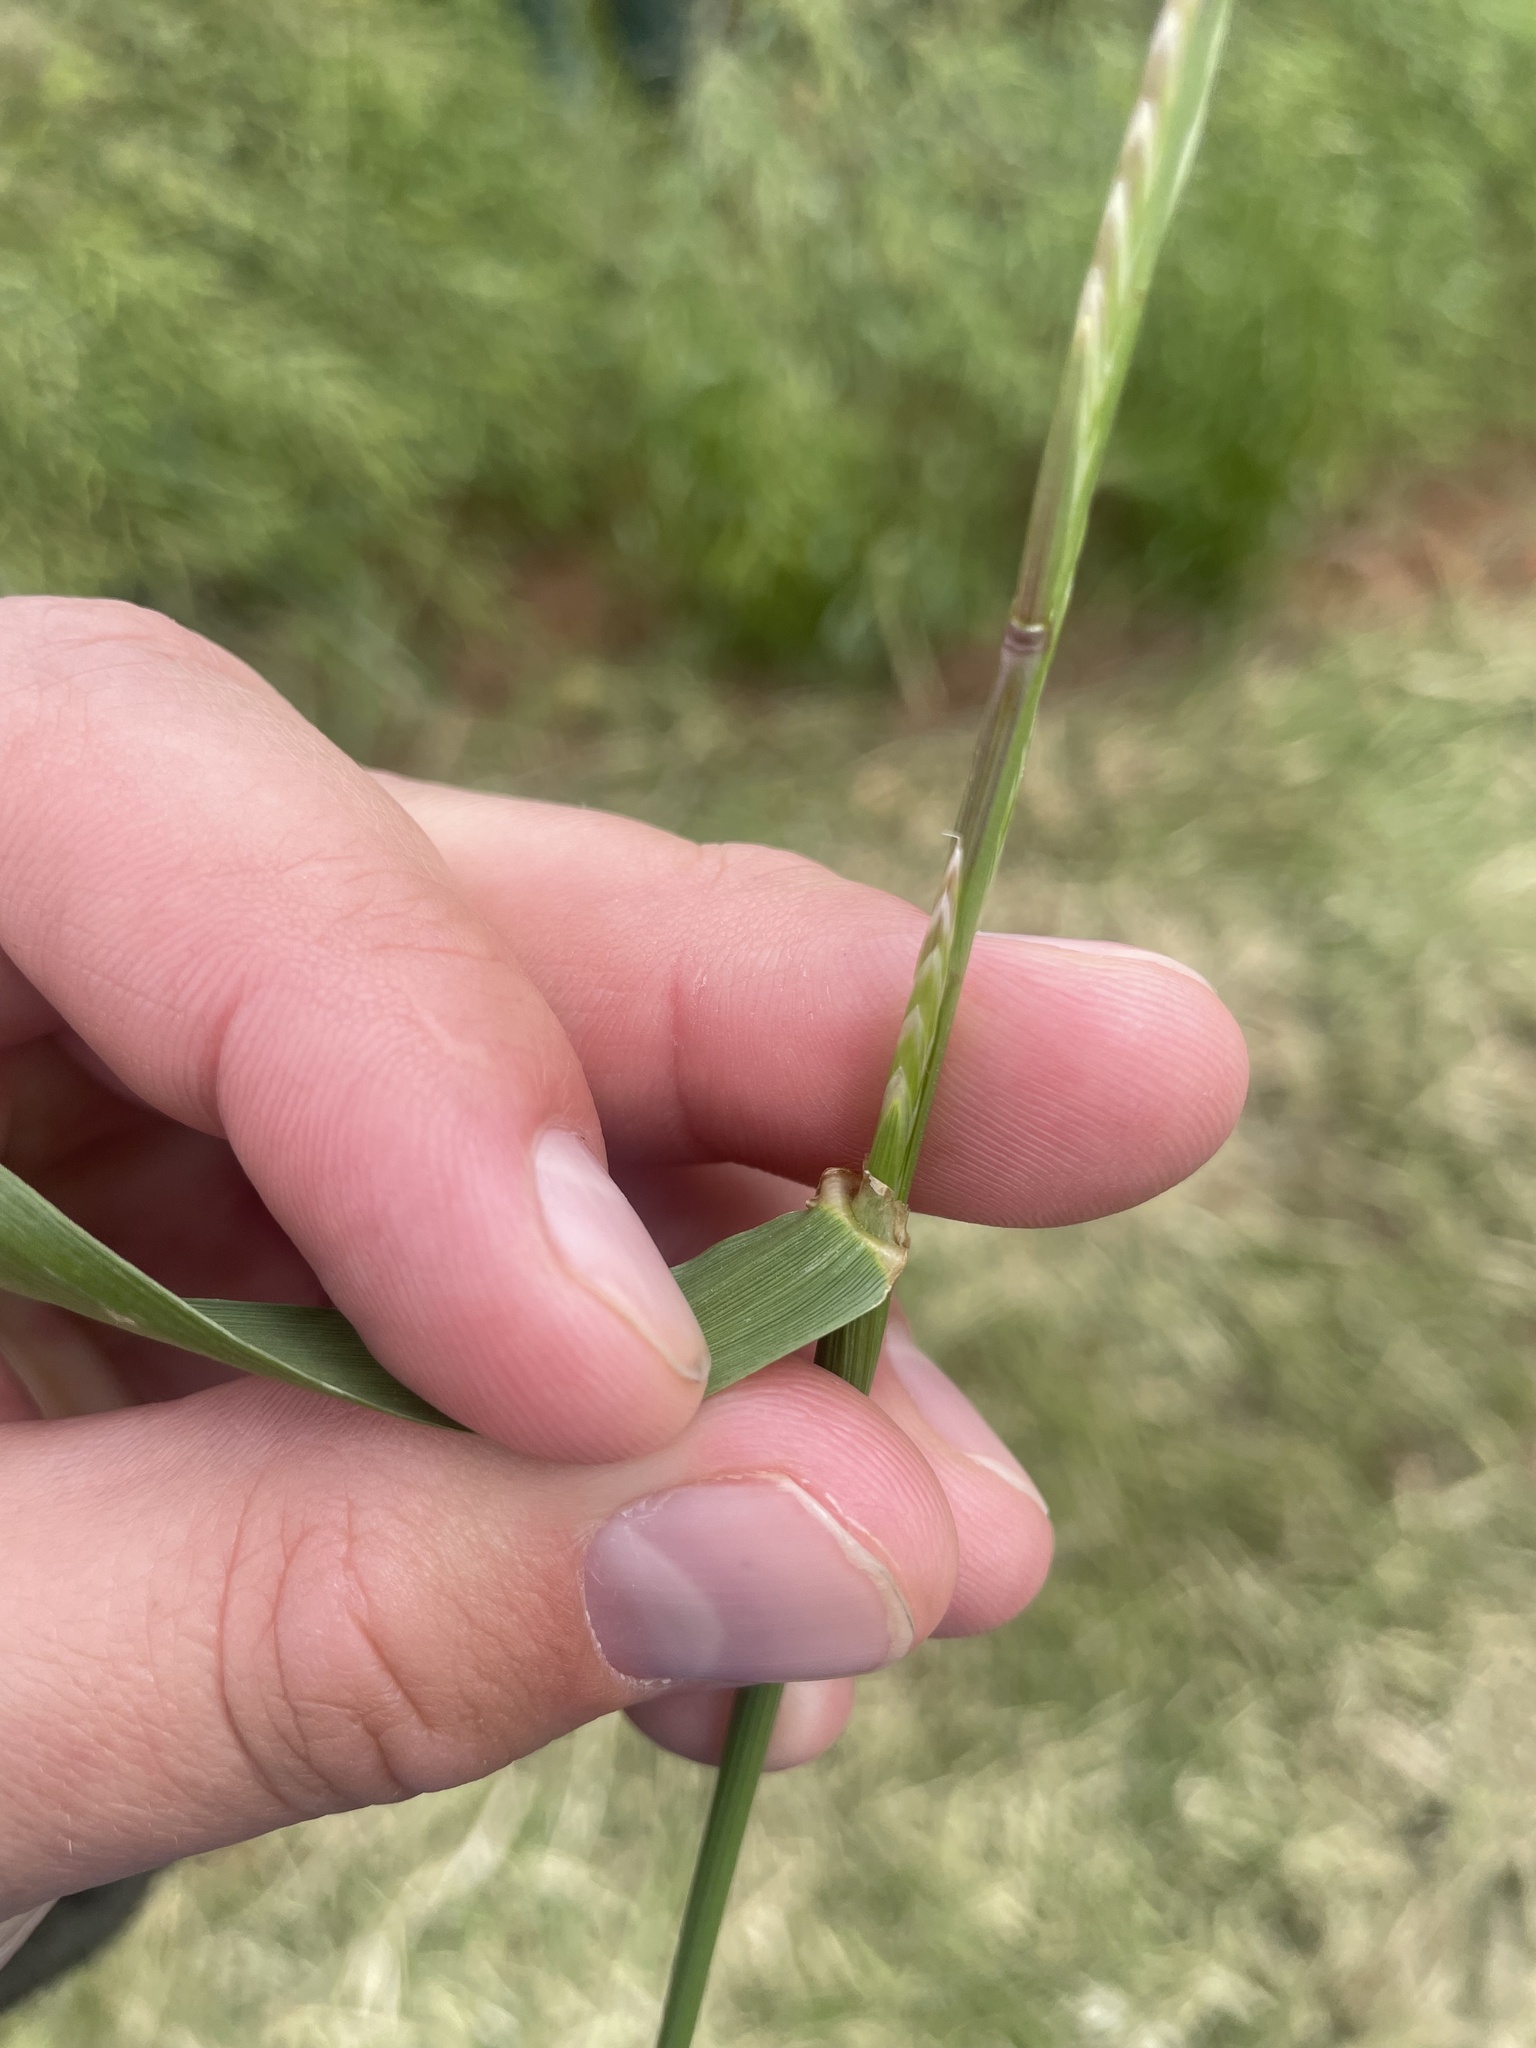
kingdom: Plantae
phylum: Tracheophyta
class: Liliopsida
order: Poales
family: Poaceae
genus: Lolium
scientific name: Lolium perenne
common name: Perennial ryegrass
